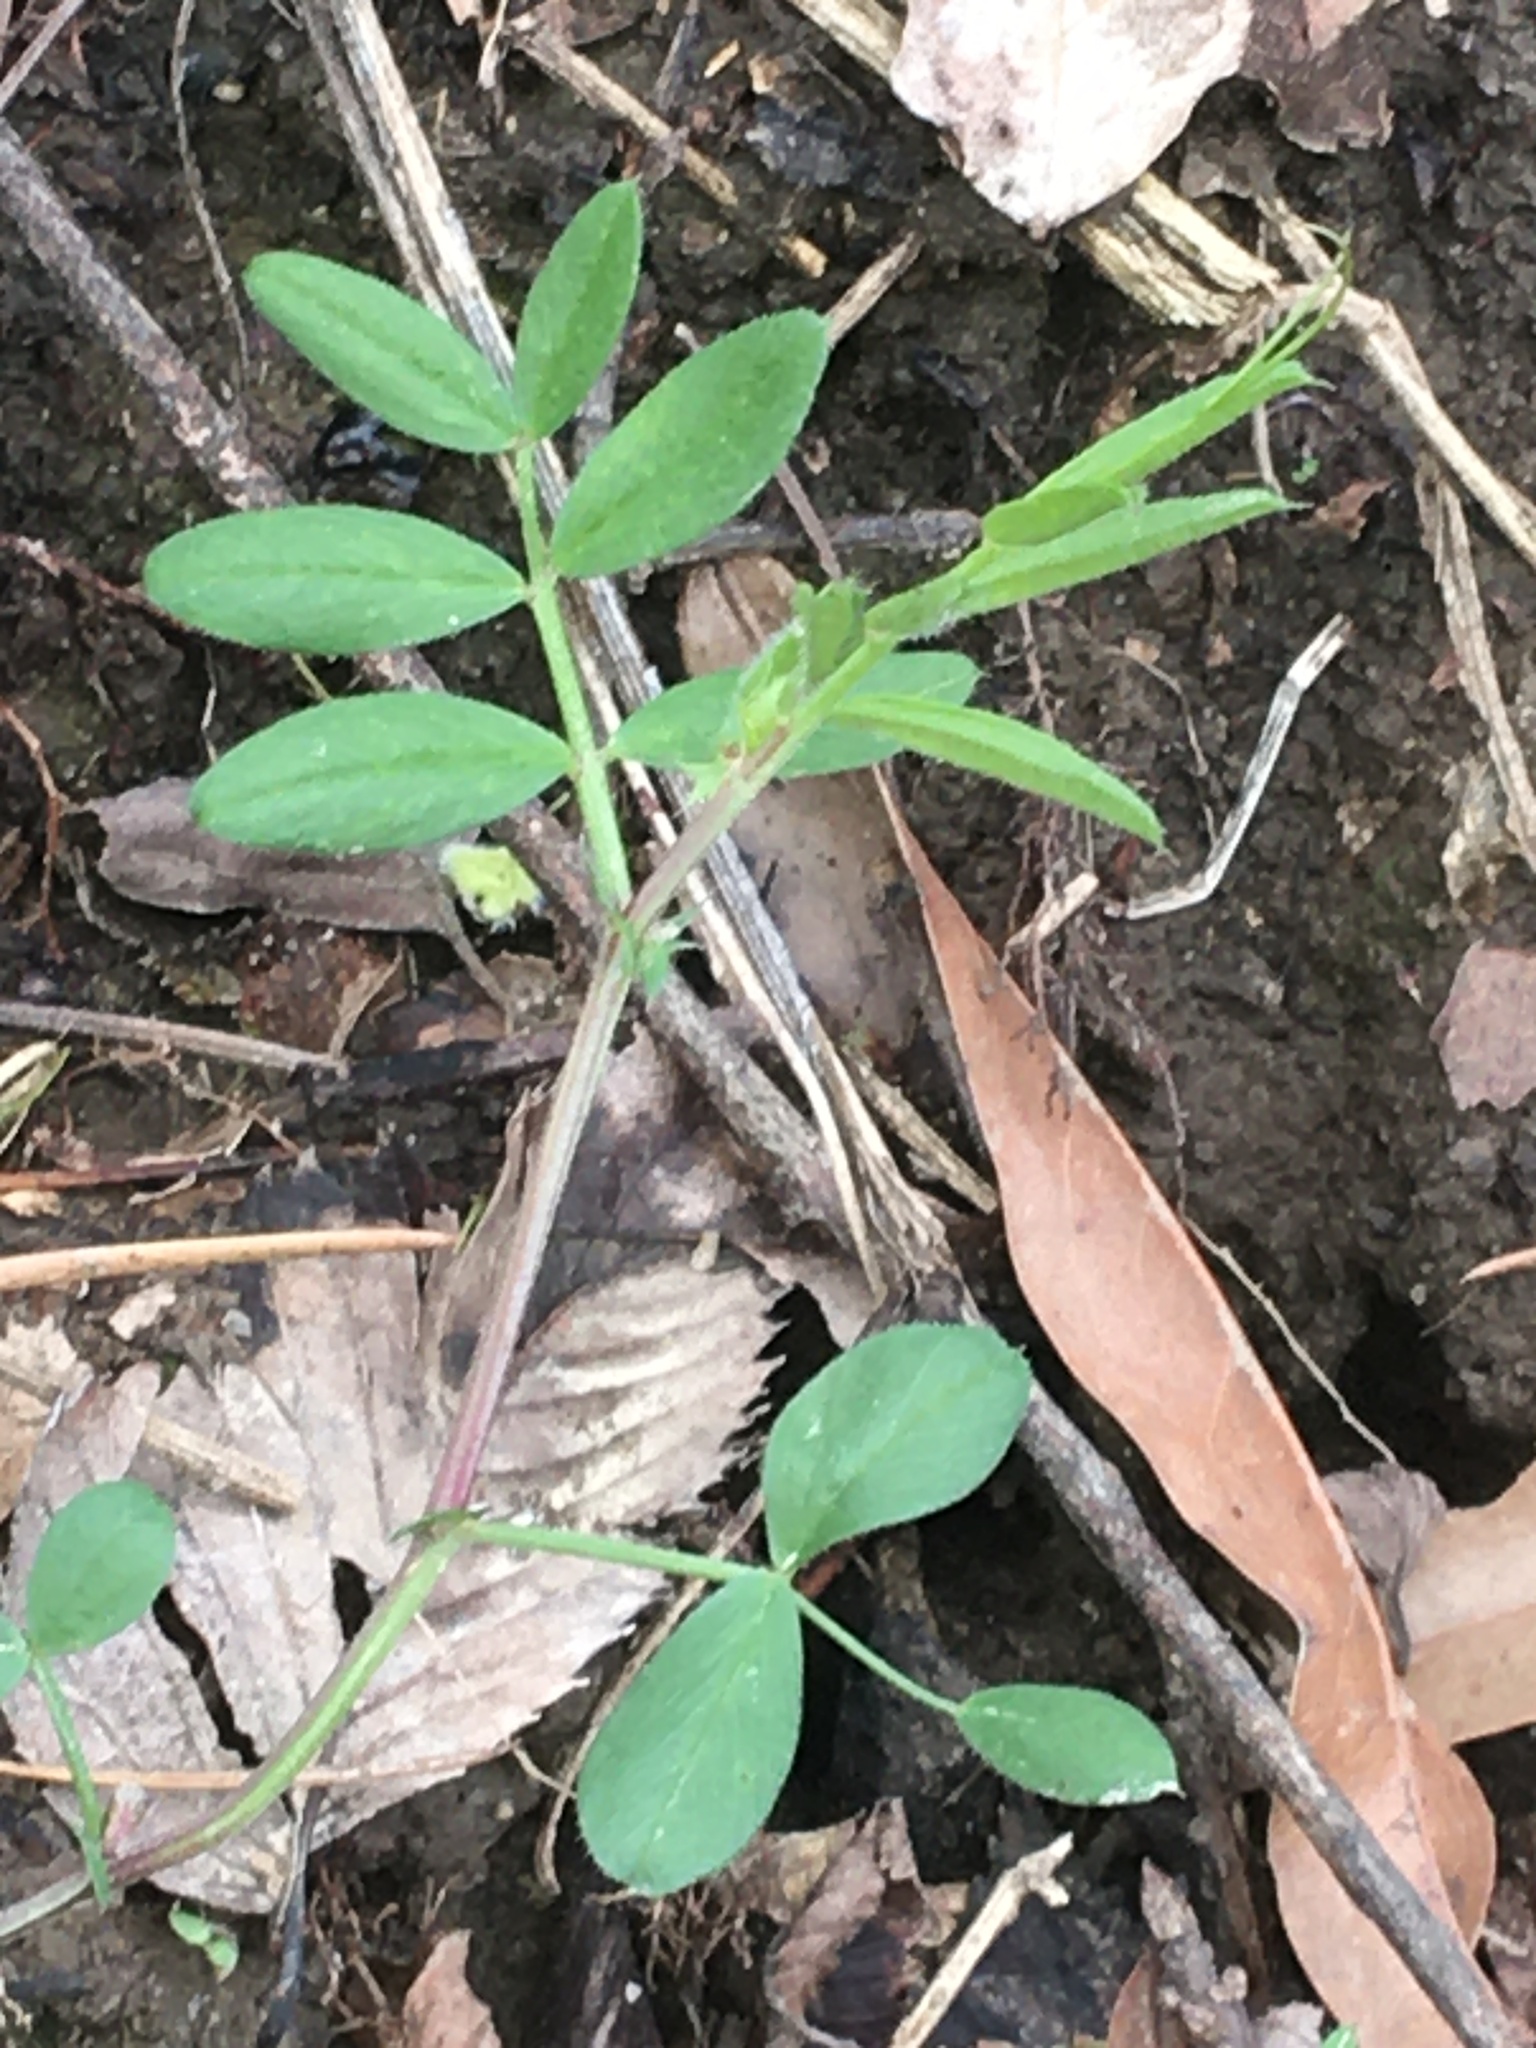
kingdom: Plantae
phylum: Tracheophyta
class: Magnoliopsida
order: Fabales
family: Fabaceae
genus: Vicia
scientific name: Vicia sativa
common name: Garden vetch
